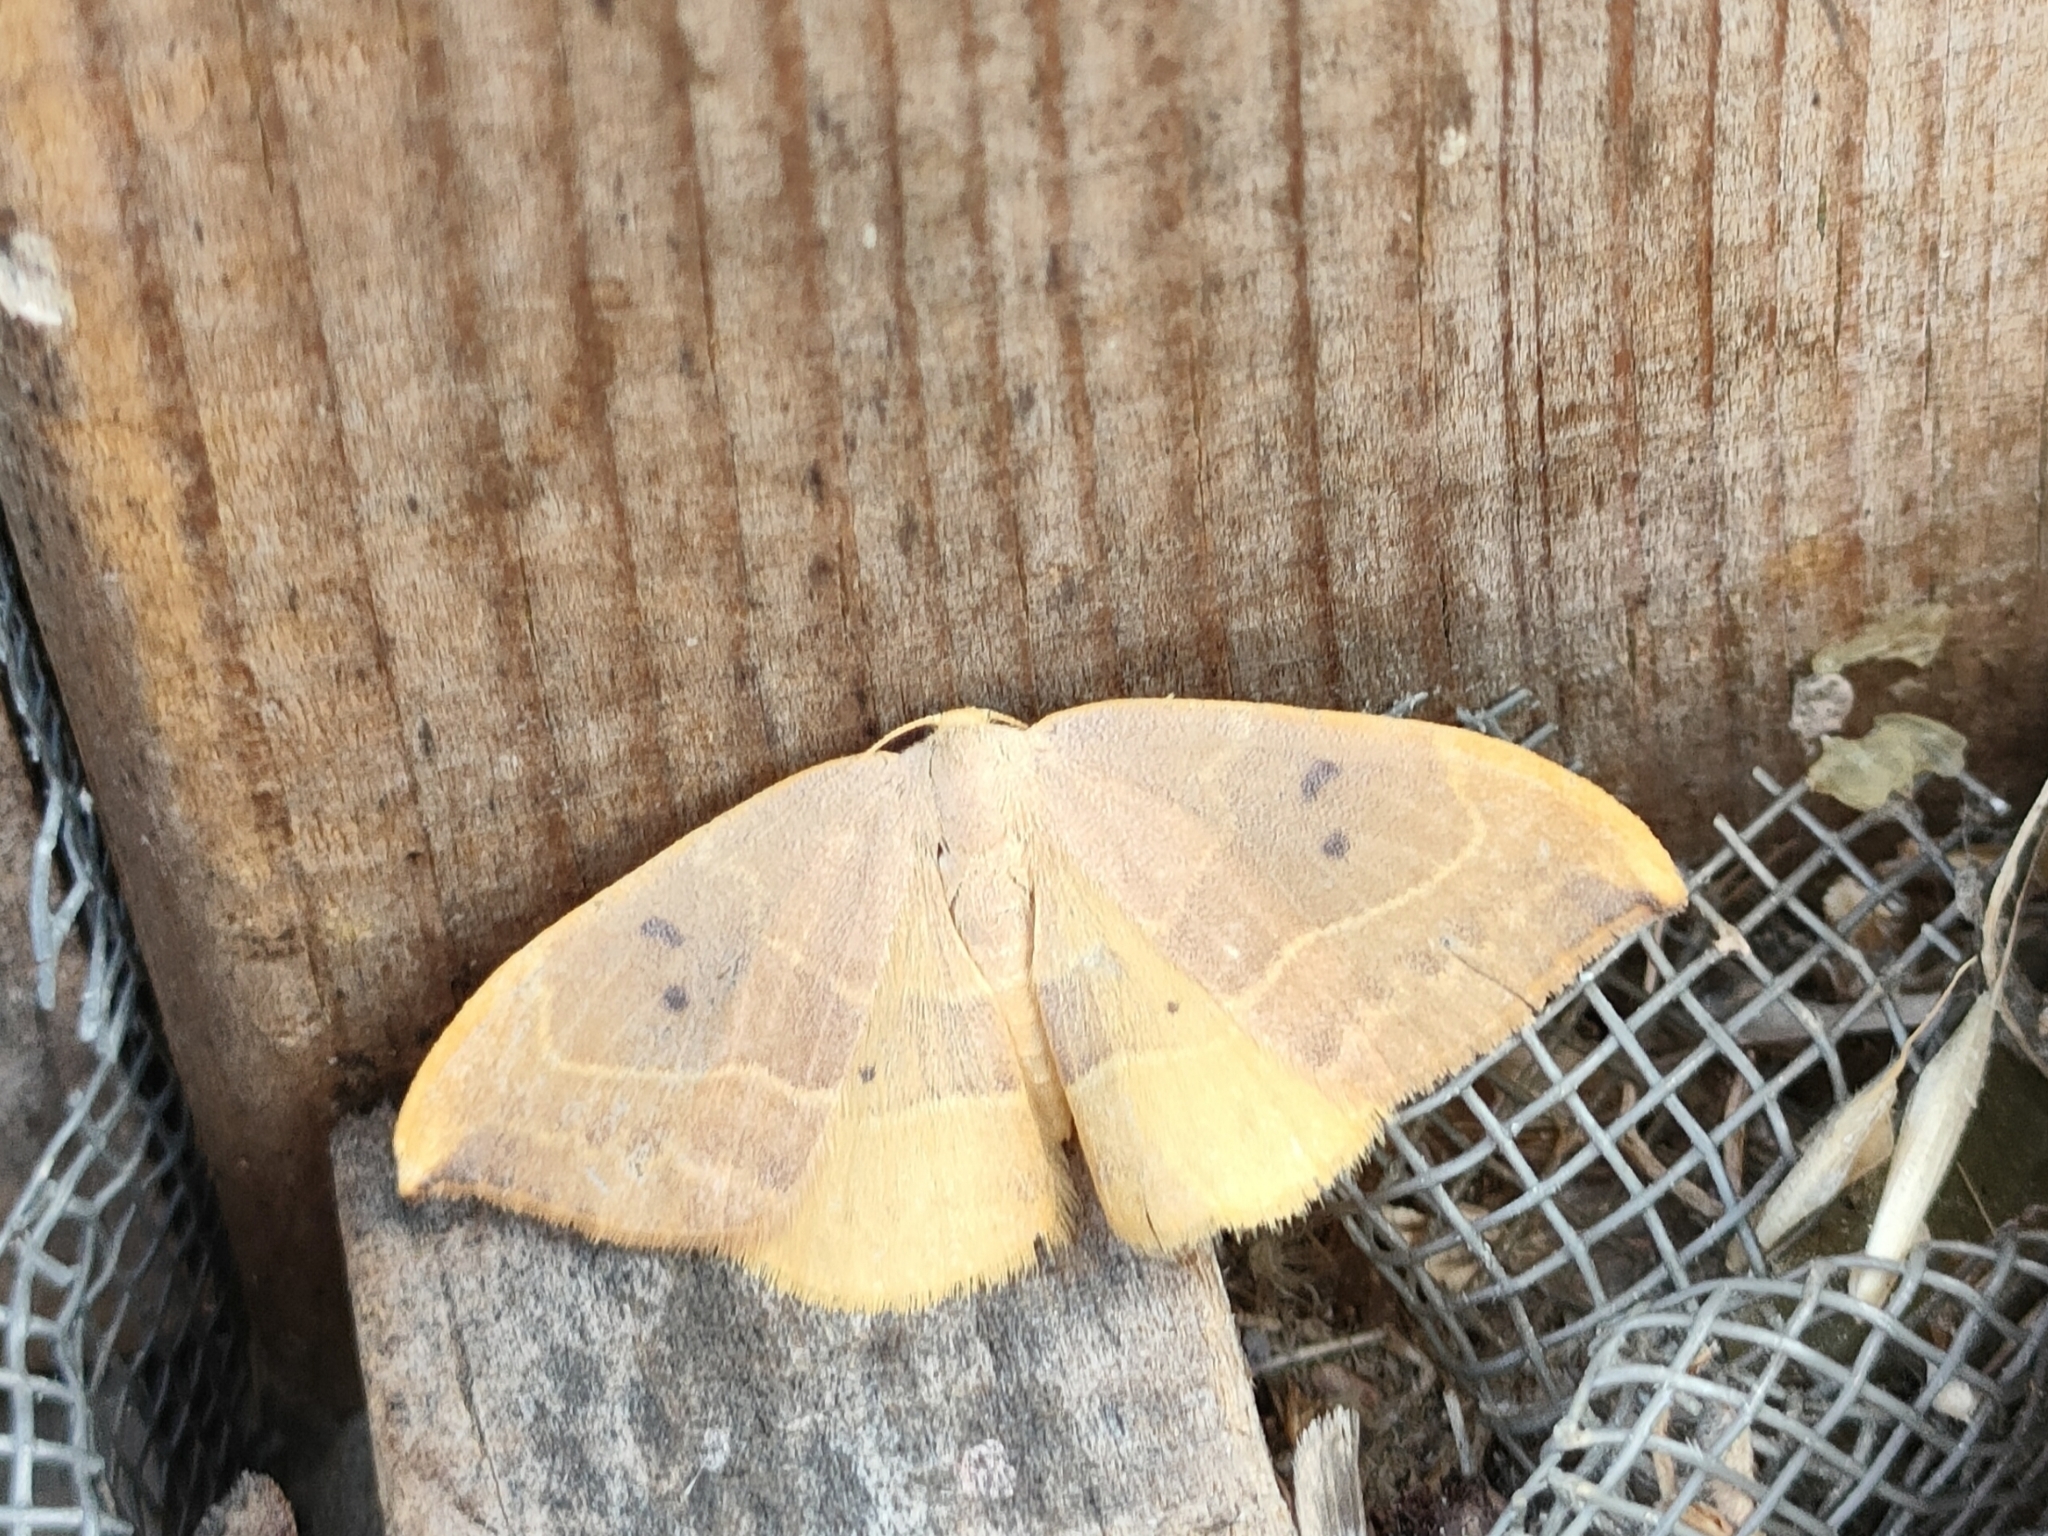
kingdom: Animalia
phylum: Arthropoda
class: Insecta
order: Lepidoptera
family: Drepanidae
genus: Watsonalla
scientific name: Watsonalla binaria
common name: Oak hook-tip
